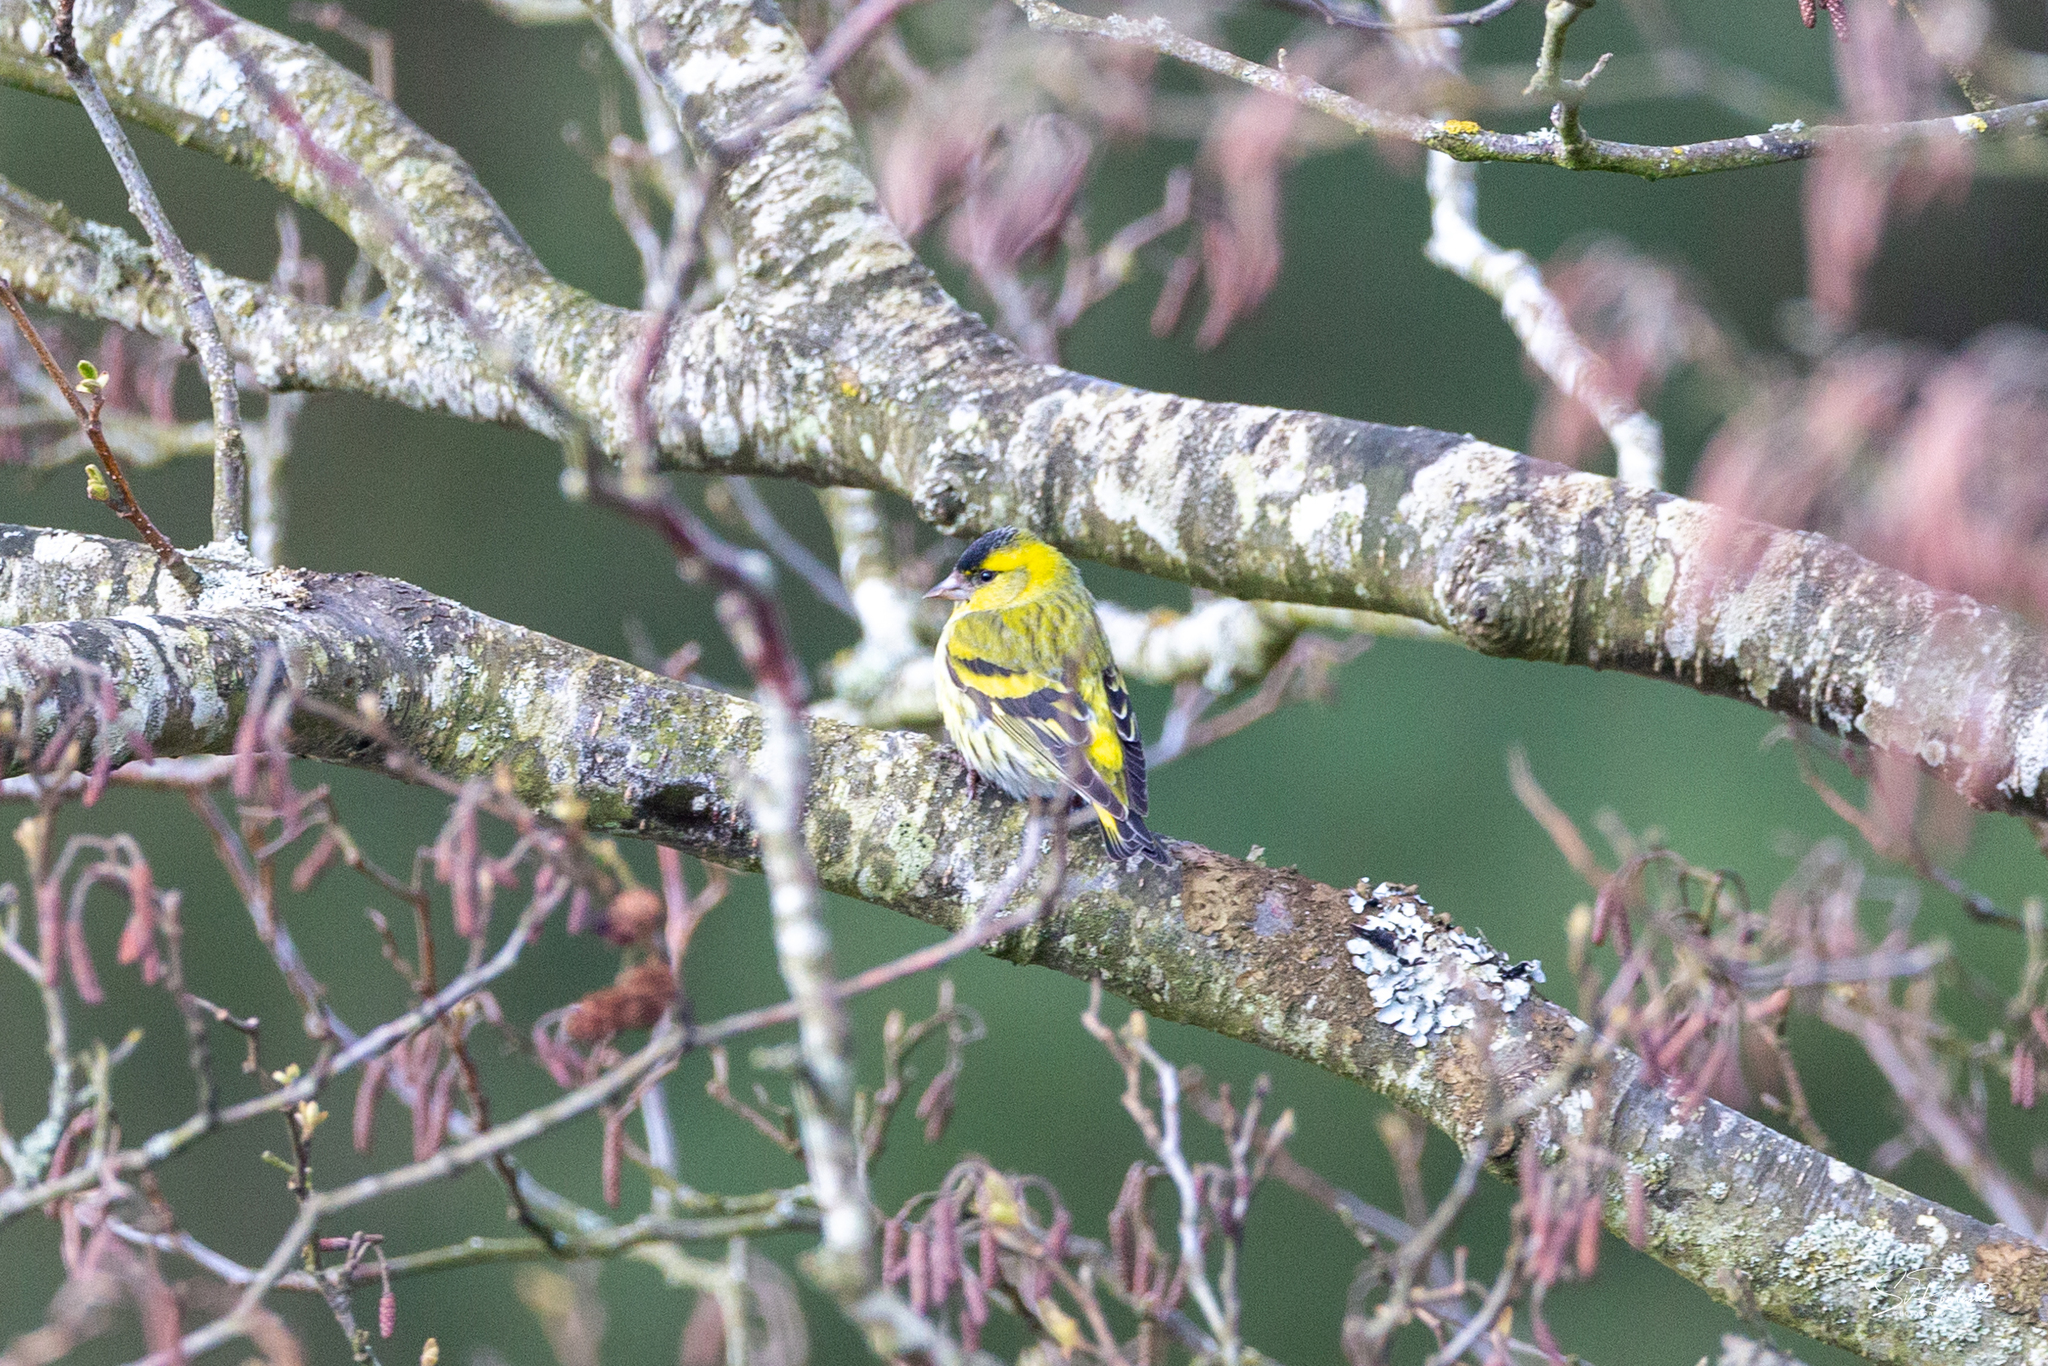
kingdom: Animalia
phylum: Chordata
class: Aves
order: Passeriformes
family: Fringillidae
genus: Spinus
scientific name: Spinus spinus
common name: Eurasian siskin
